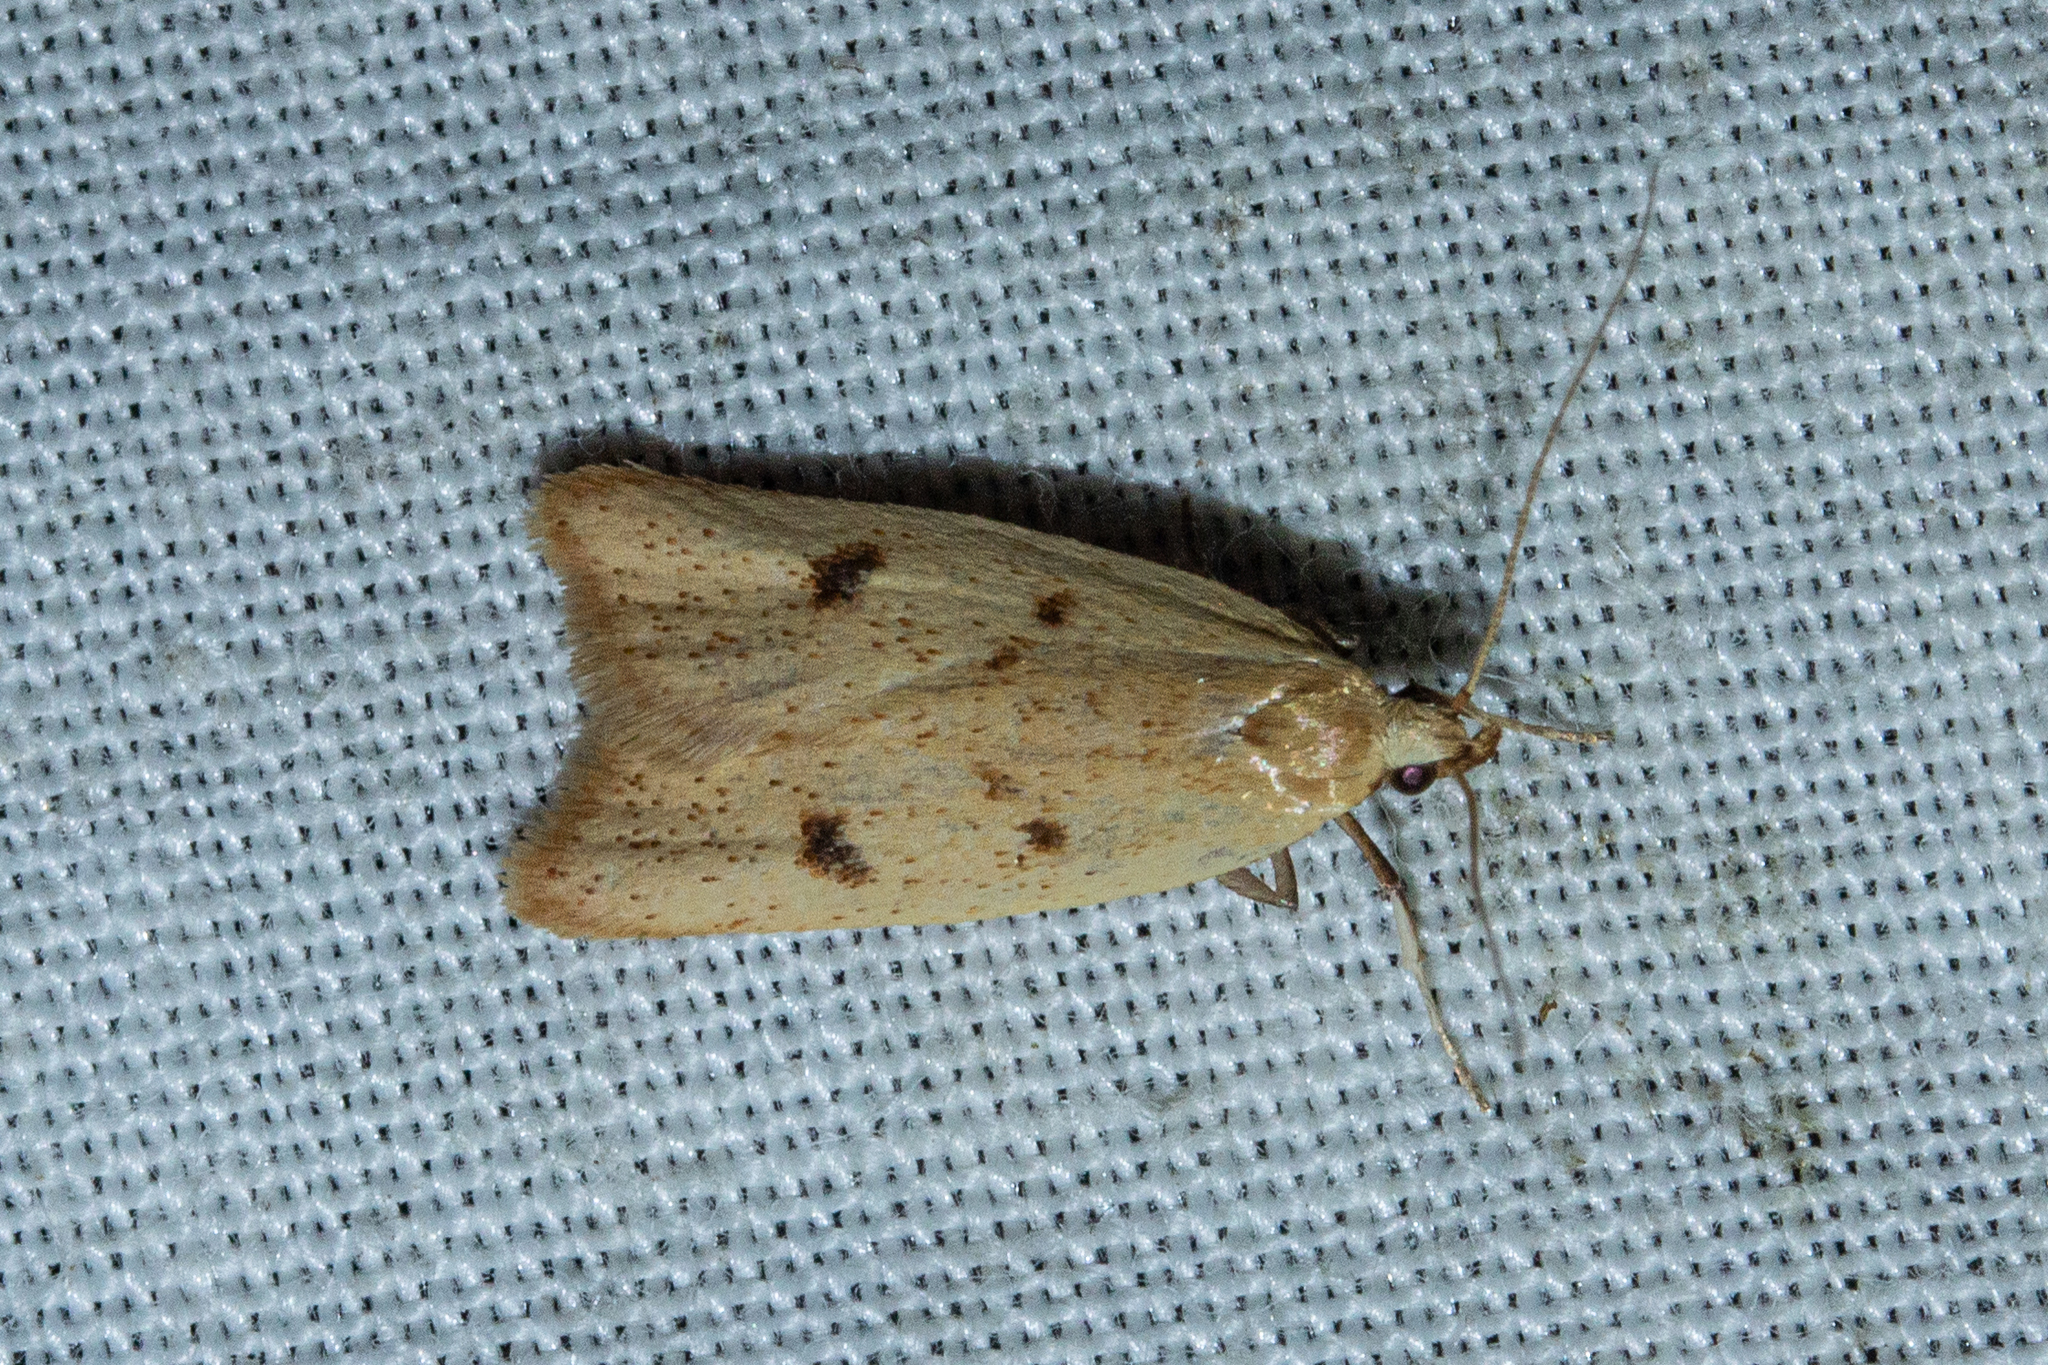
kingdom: Animalia
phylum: Arthropoda
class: Insecta
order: Lepidoptera
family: Oecophoridae
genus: Gymnobathra
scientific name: Gymnobathra sarcoxantha
